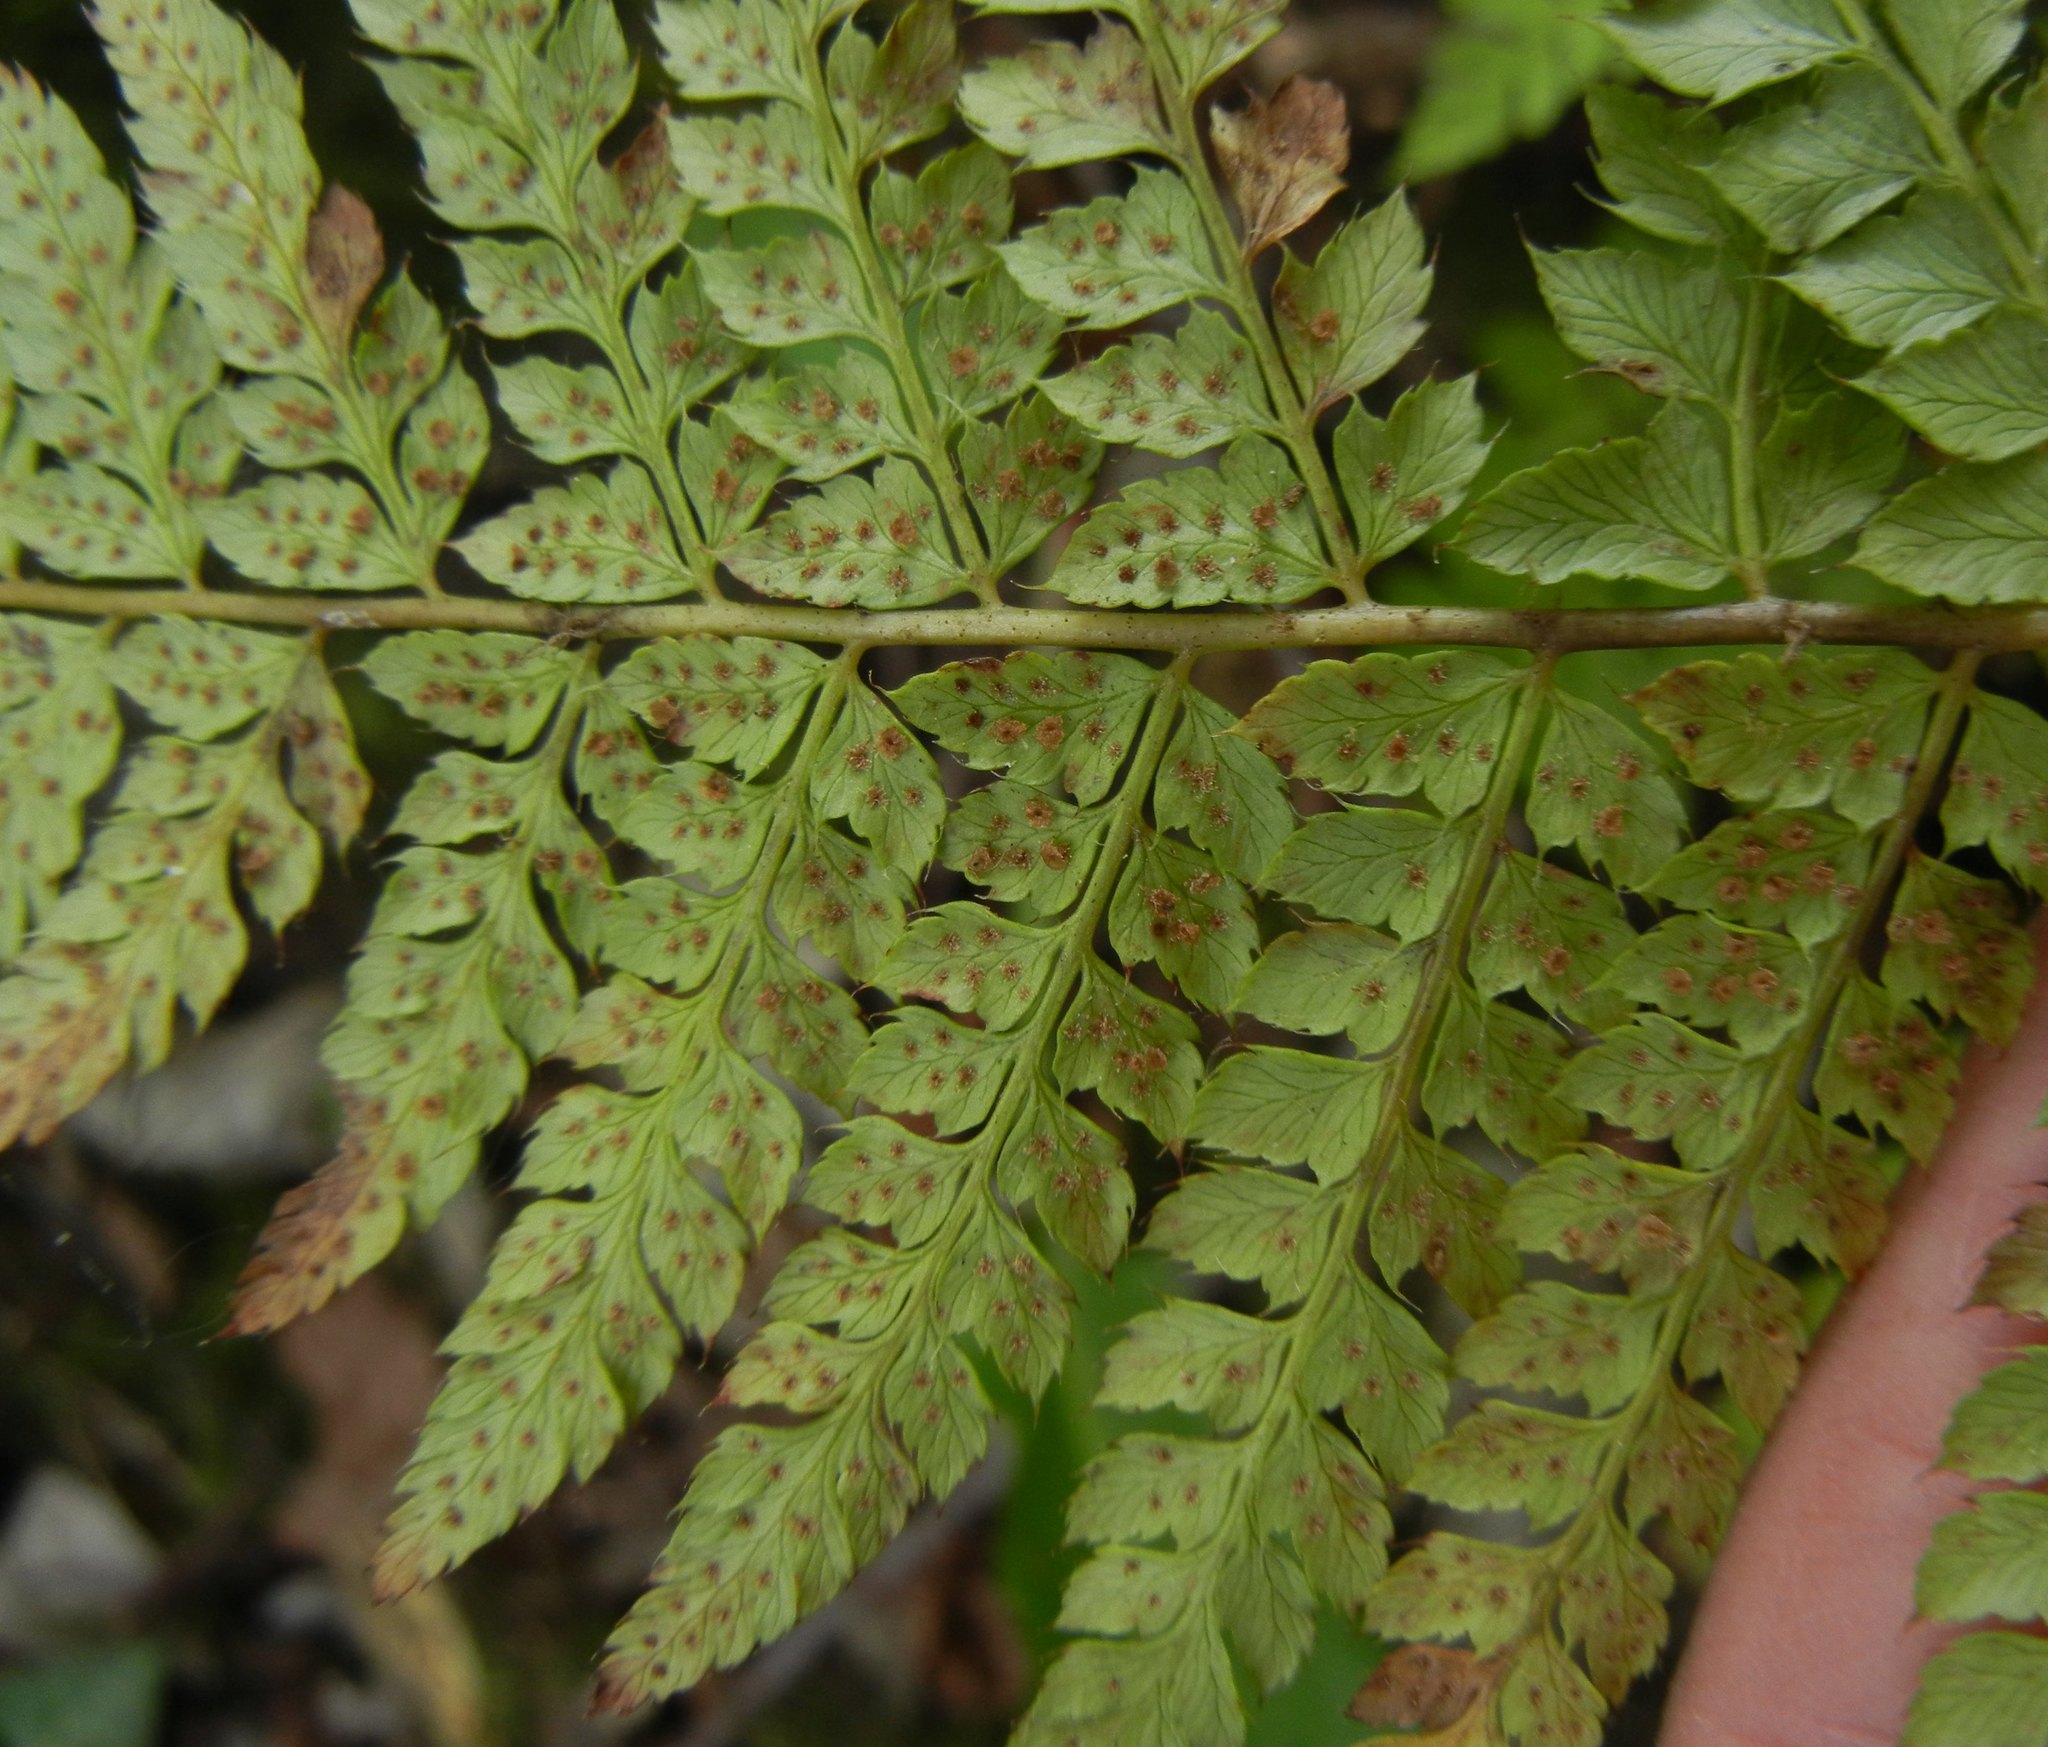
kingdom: Plantae
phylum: Tracheophyta
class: Polypodiopsida
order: Polypodiales
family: Dryopteridaceae
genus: Polystichum
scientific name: Polystichum setiferum
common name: Soft shield-fern
